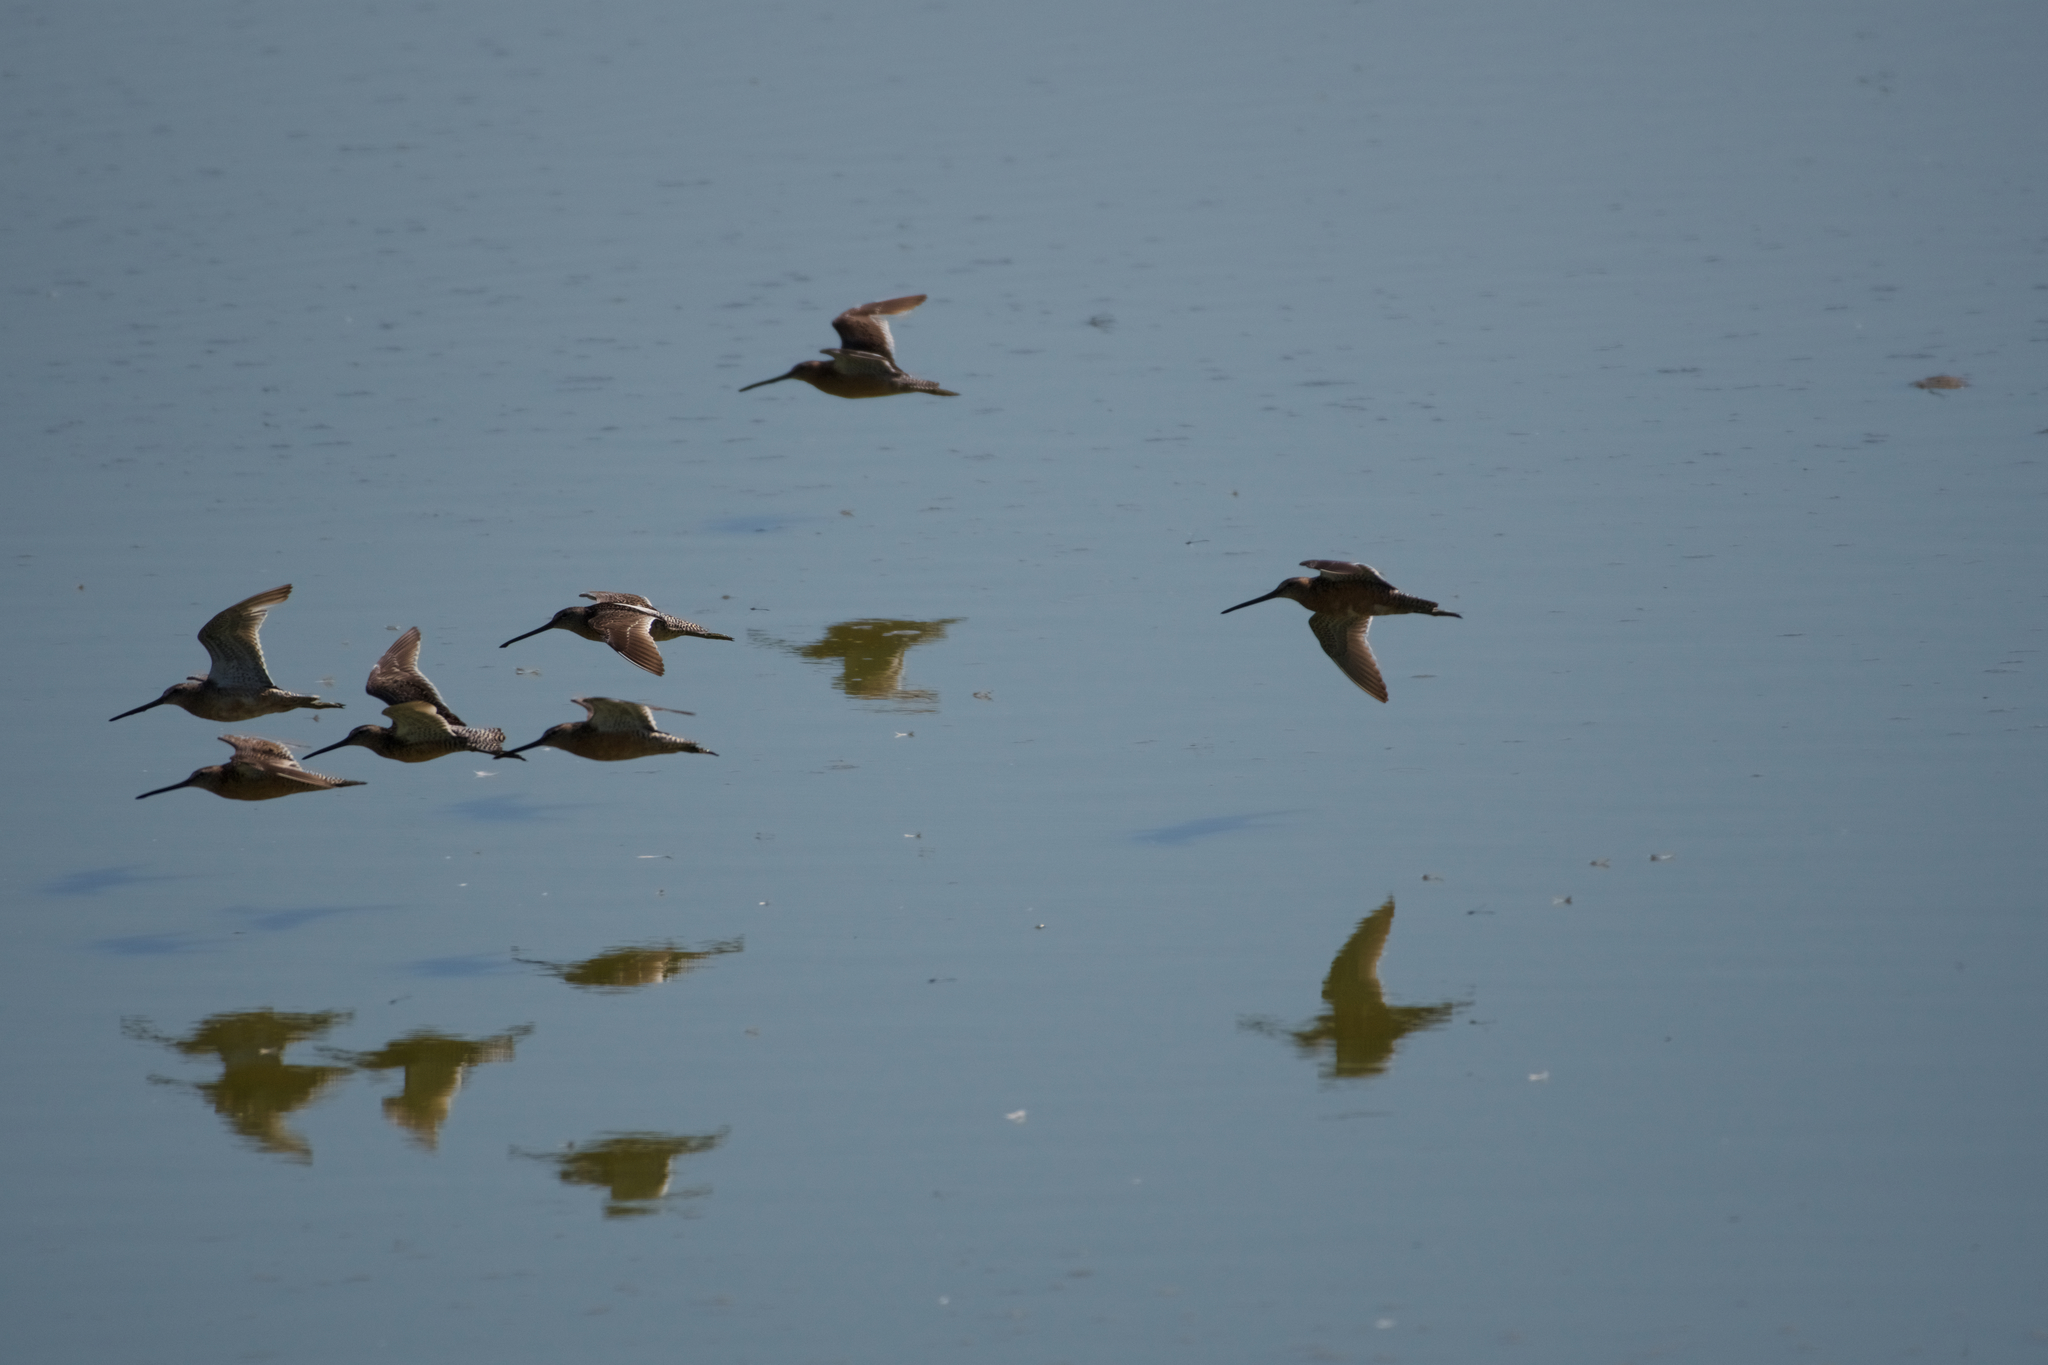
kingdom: Animalia
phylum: Chordata
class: Aves
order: Charadriiformes
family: Scolopacidae
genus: Limnodromus
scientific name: Limnodromus scolopaceus
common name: Long-billed dowitcher
